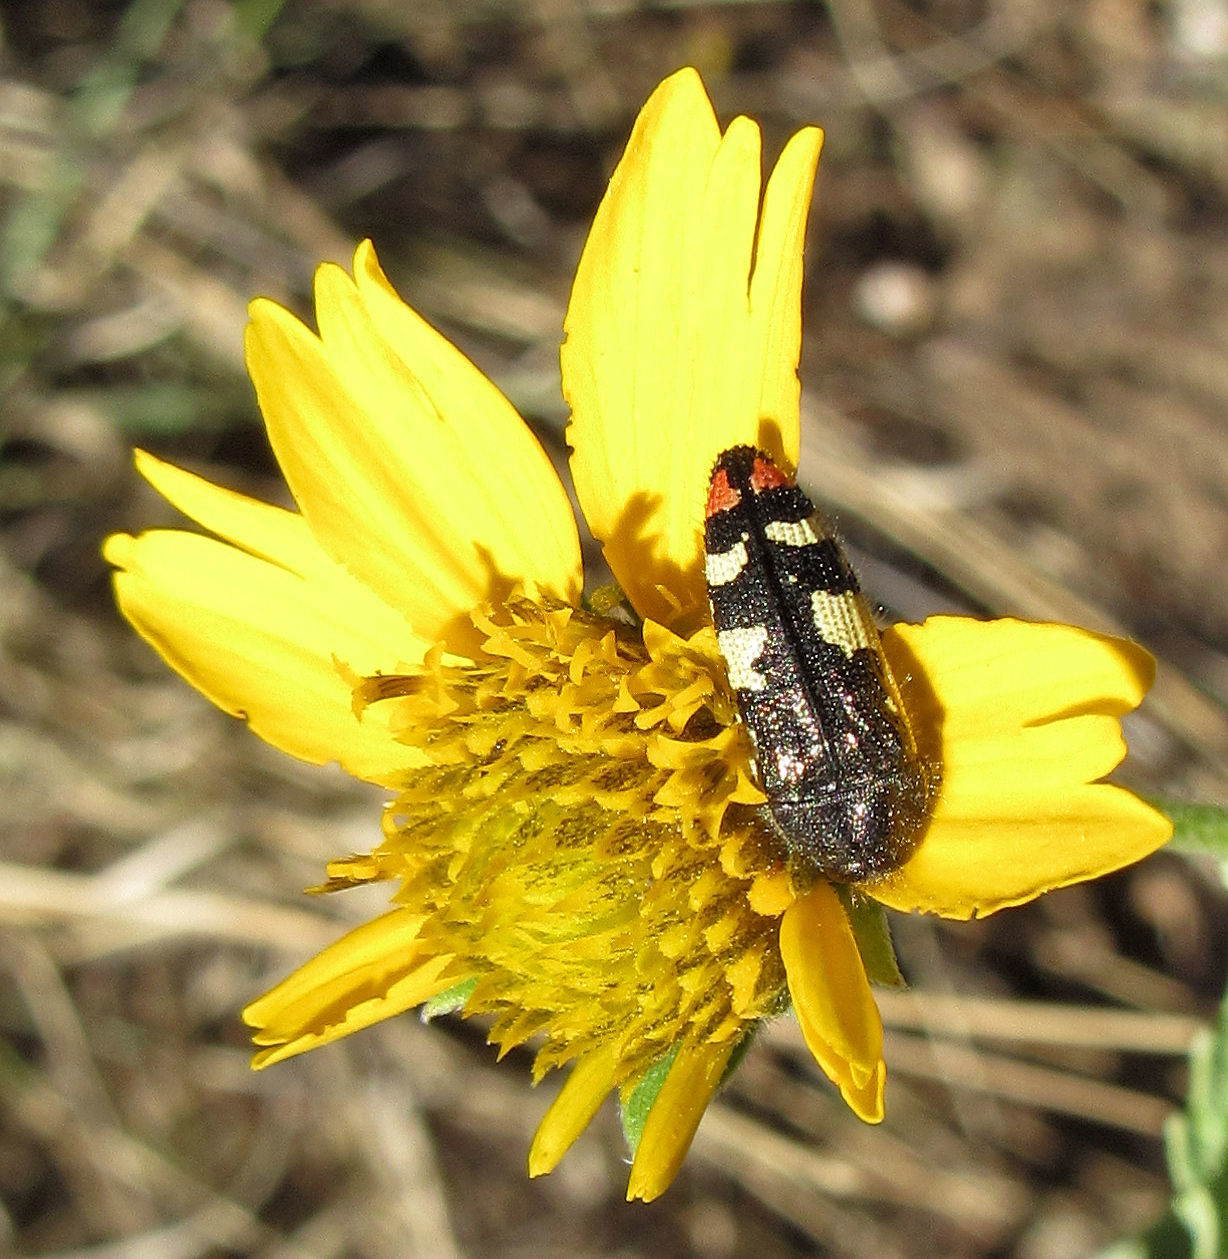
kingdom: Animalia
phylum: Arthropoda
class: Insecta
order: Coleoptera
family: Buprestidae
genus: Acmaeodera
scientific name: Acmaeodera amabilis
